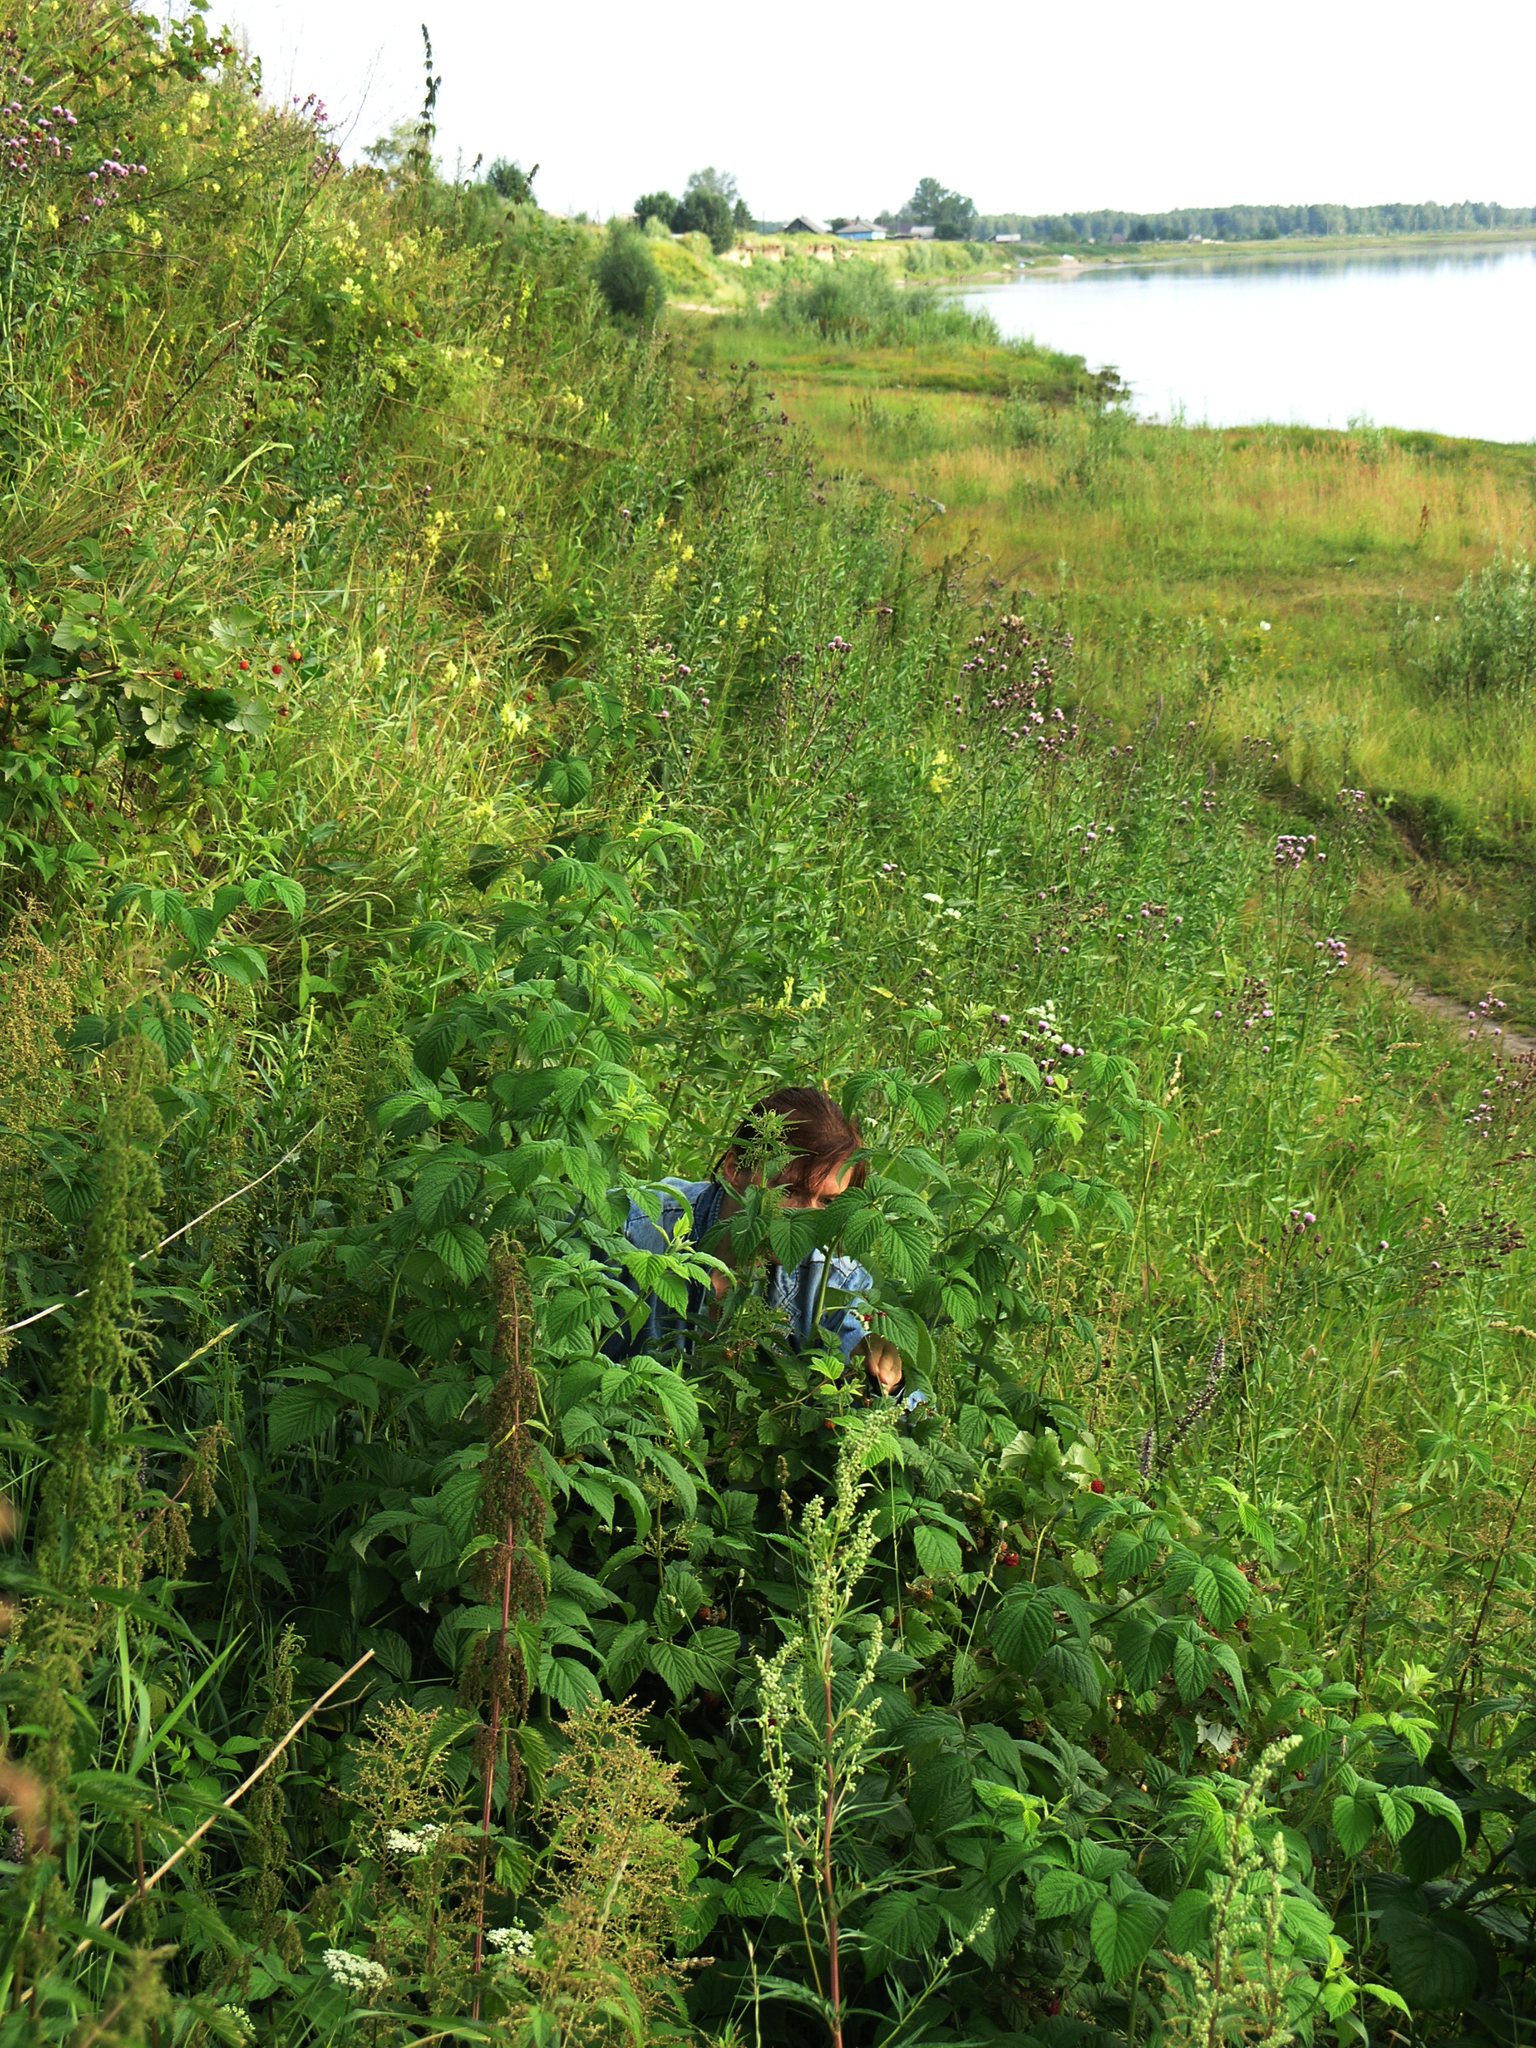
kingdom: Plantae
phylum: Tracheophyta
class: Magnoliopsida
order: Rosales
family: Rosaceae
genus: Rubus
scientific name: Rubus idaeus
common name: Raspberry
